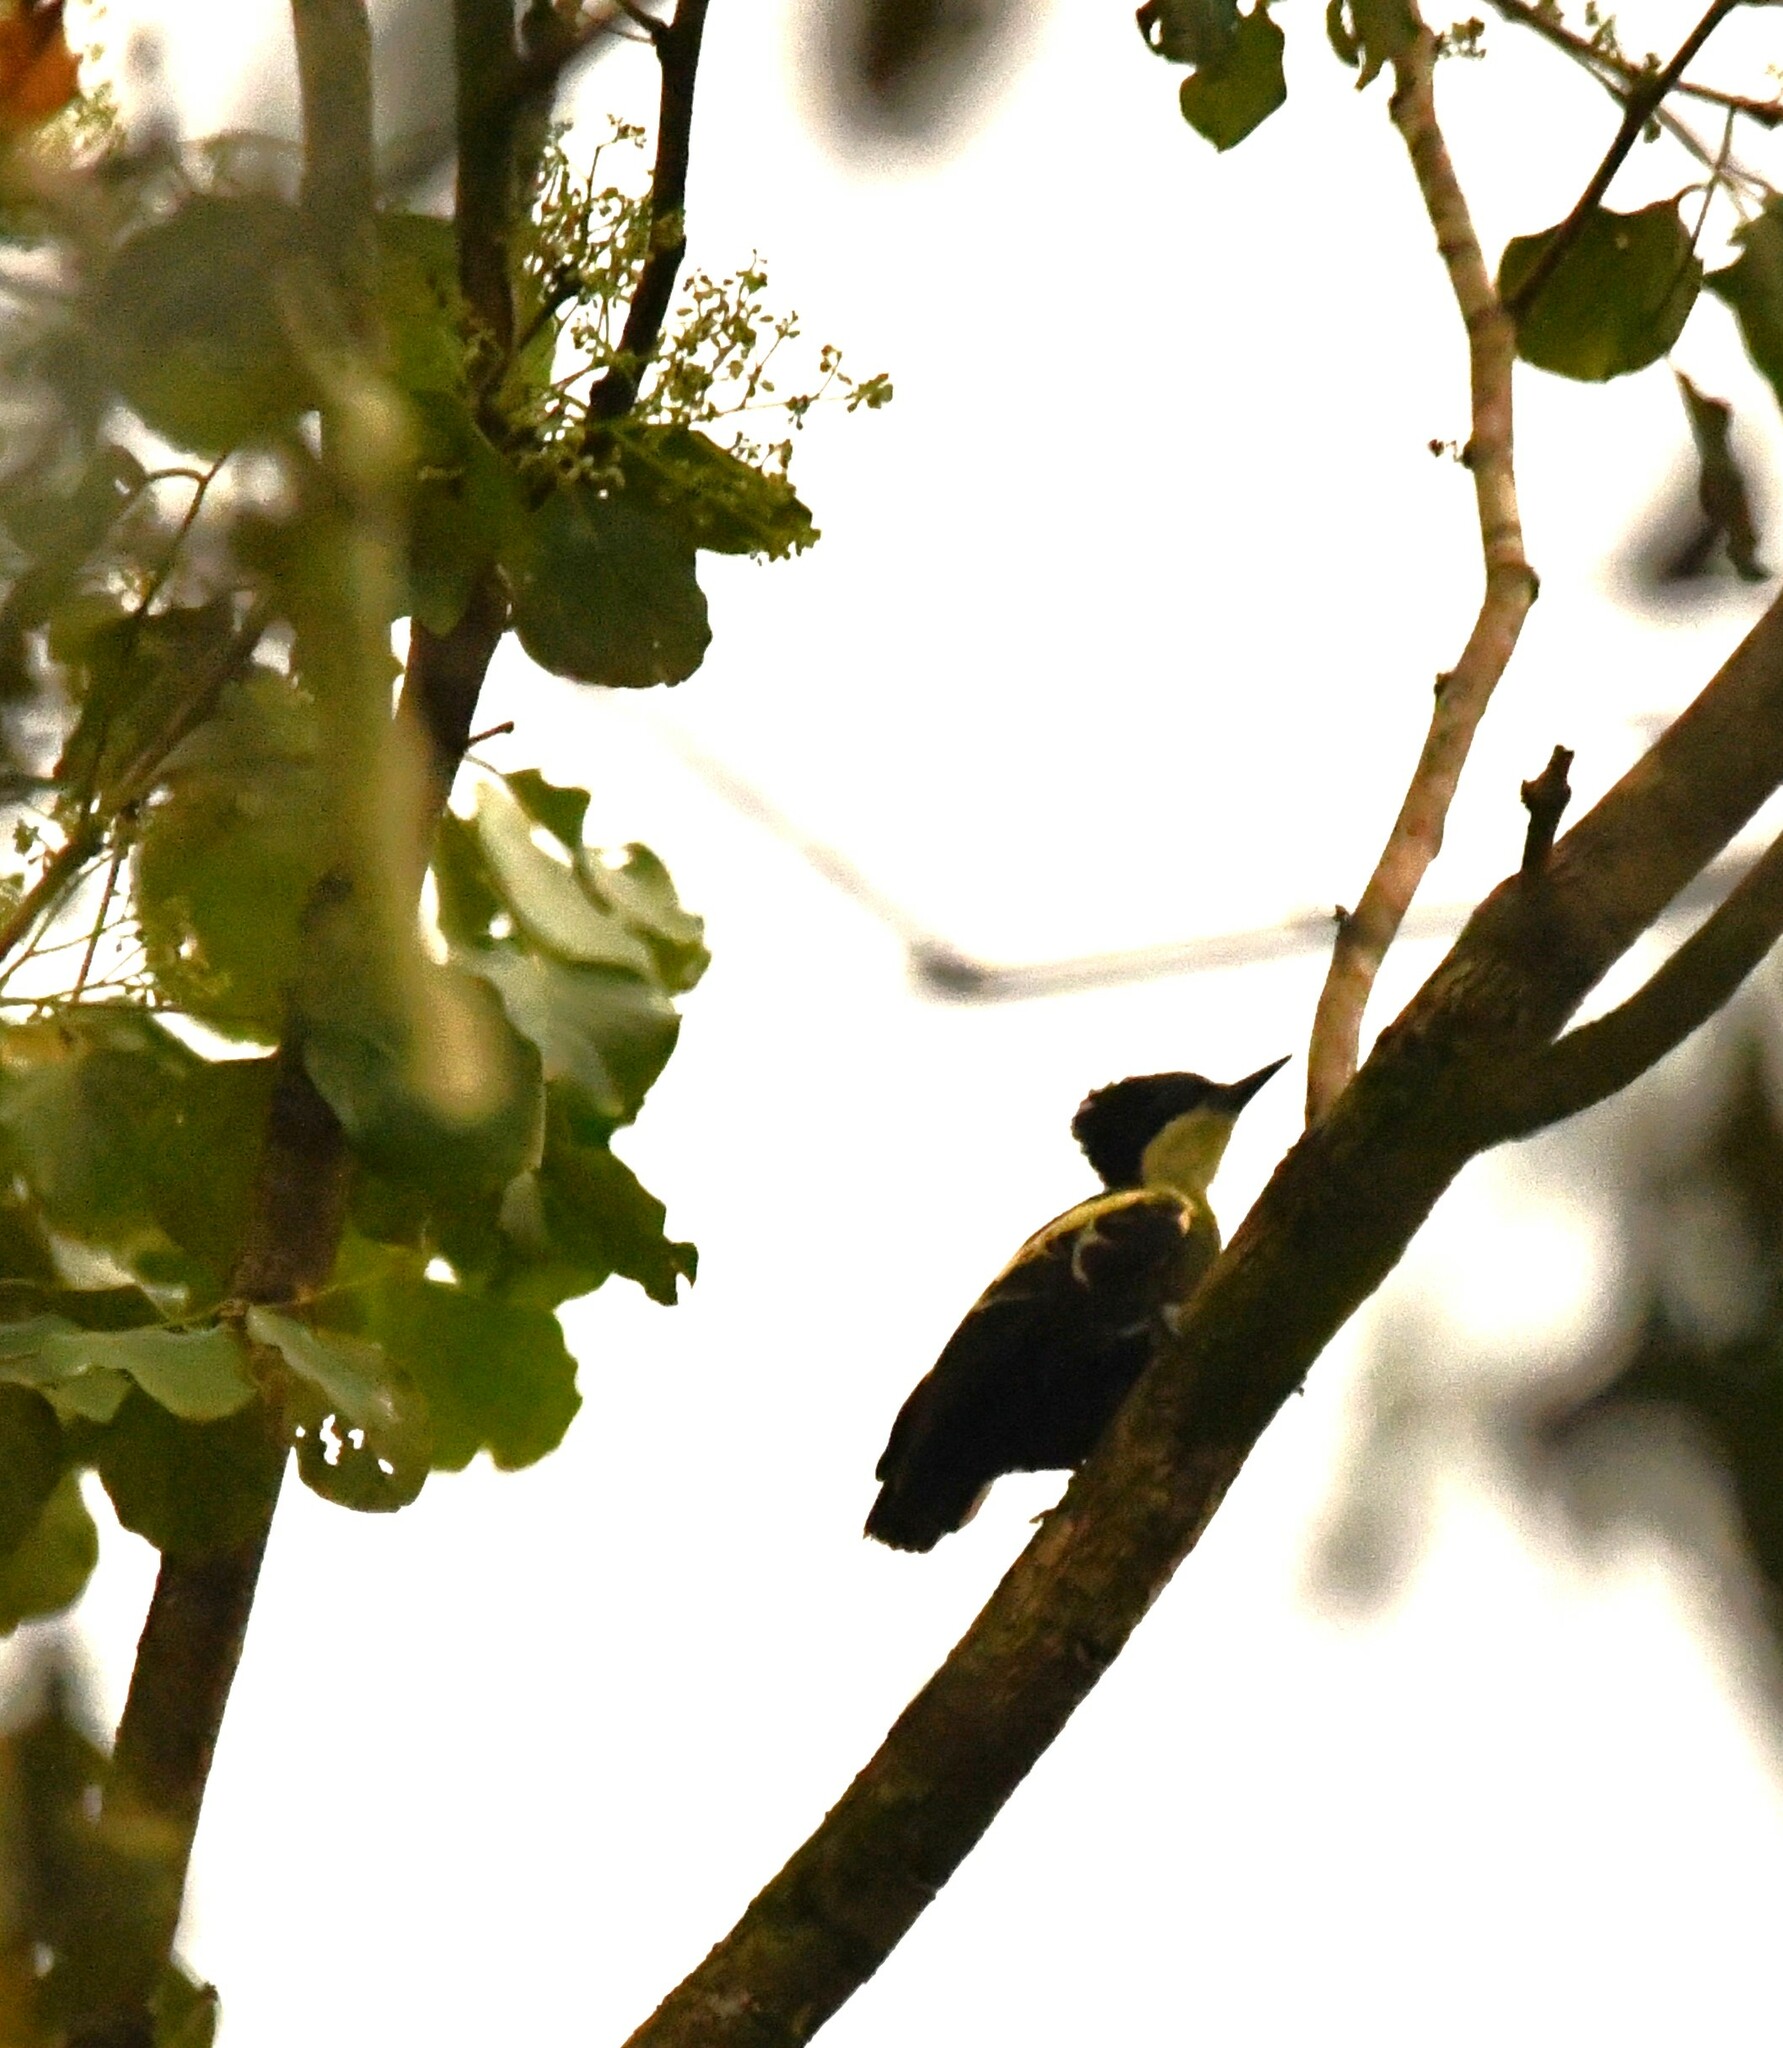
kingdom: Animalia
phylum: Chordata
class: Aves
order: Piciformes
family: Picidae
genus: Hemicircus
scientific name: Hemicircus canente
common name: Heart-spotted woodpecker
